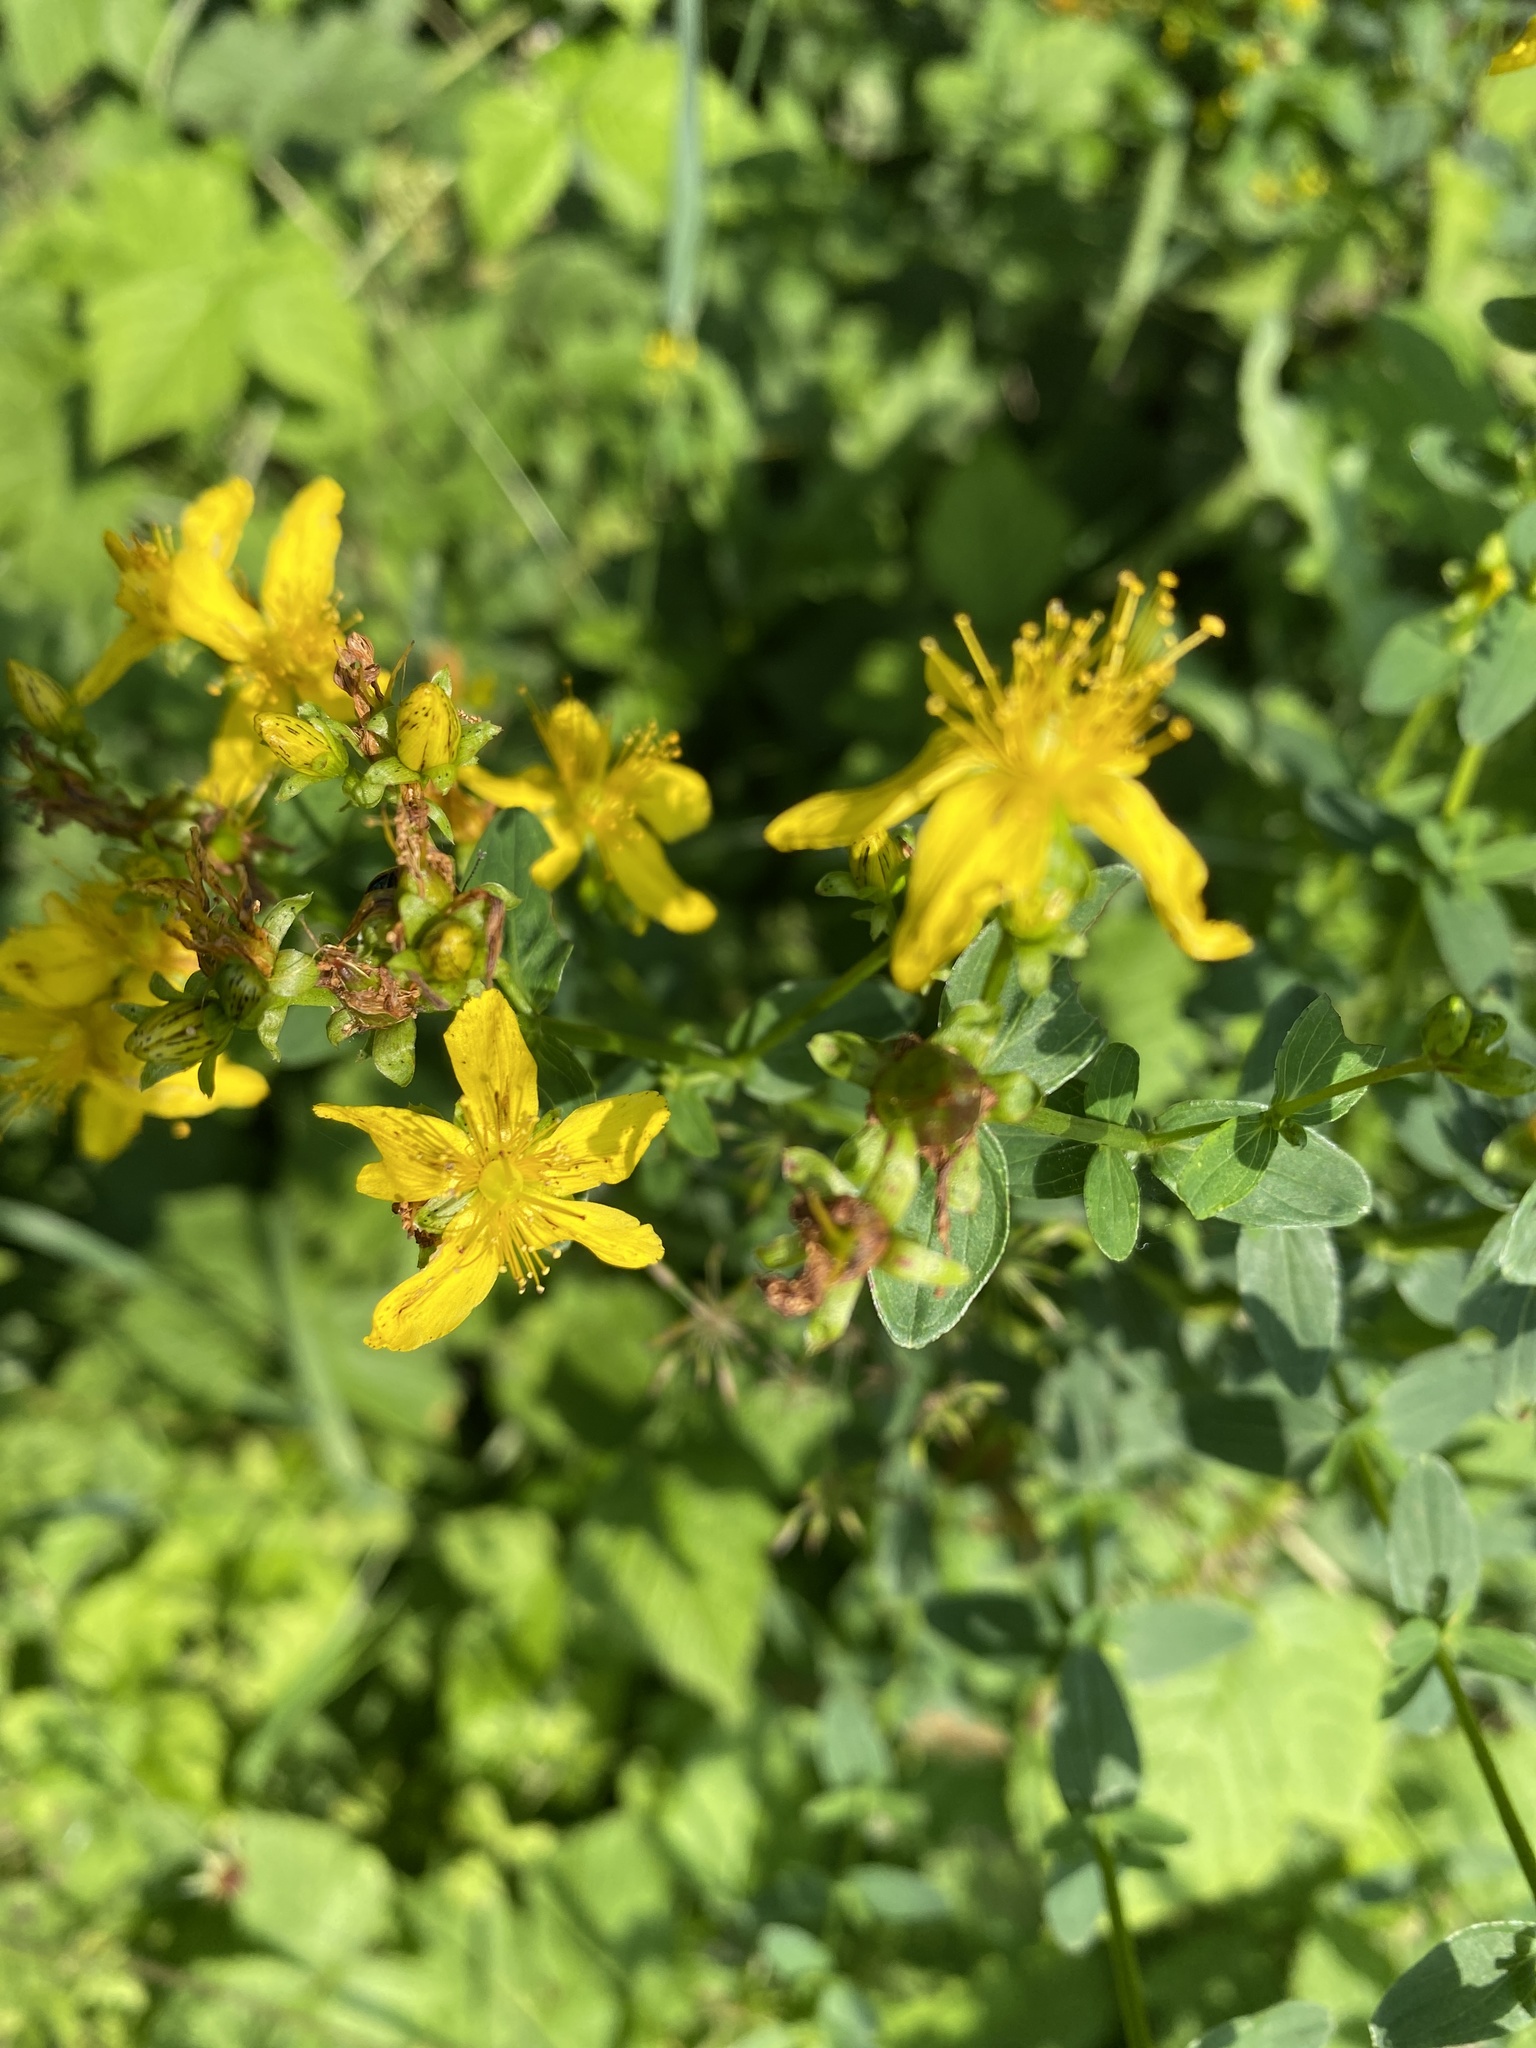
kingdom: Plantae
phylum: Tracheophyta
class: Magnoliopsida
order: Malpighiales
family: Hypericaceae
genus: Hypericum
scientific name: Hypericum maculatum
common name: Imperforate st. john's-wort
